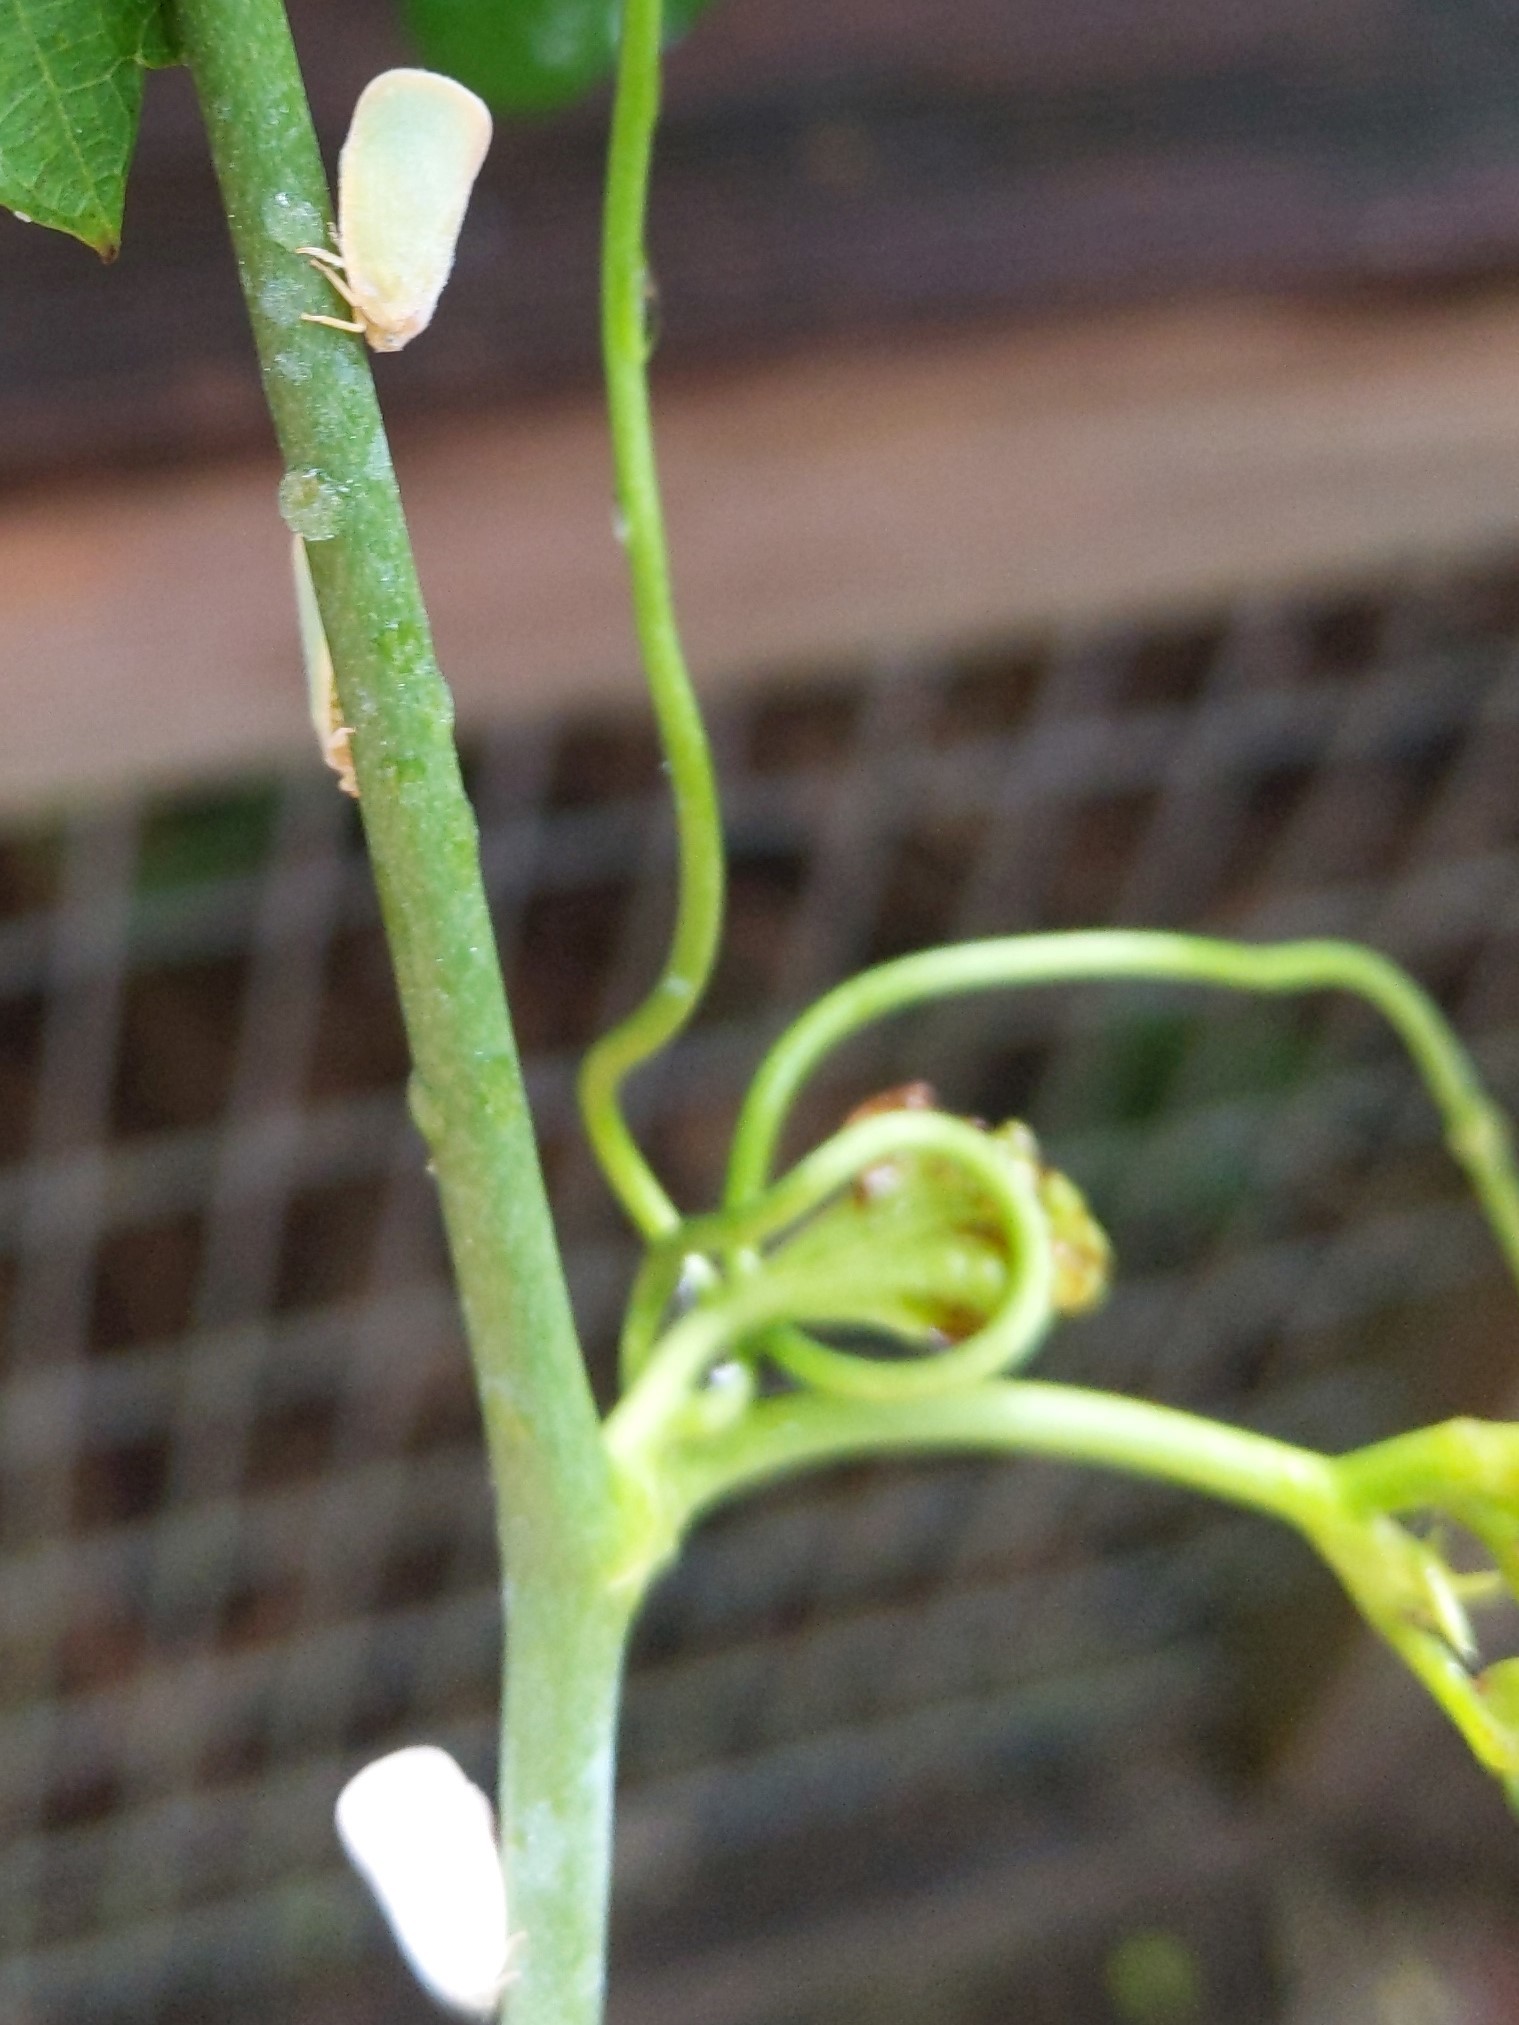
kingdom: Animalia
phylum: Arthropoda
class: Insecta
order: Hemiptera
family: Flatidae
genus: Ormenoides
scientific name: Ormenoides venusta
